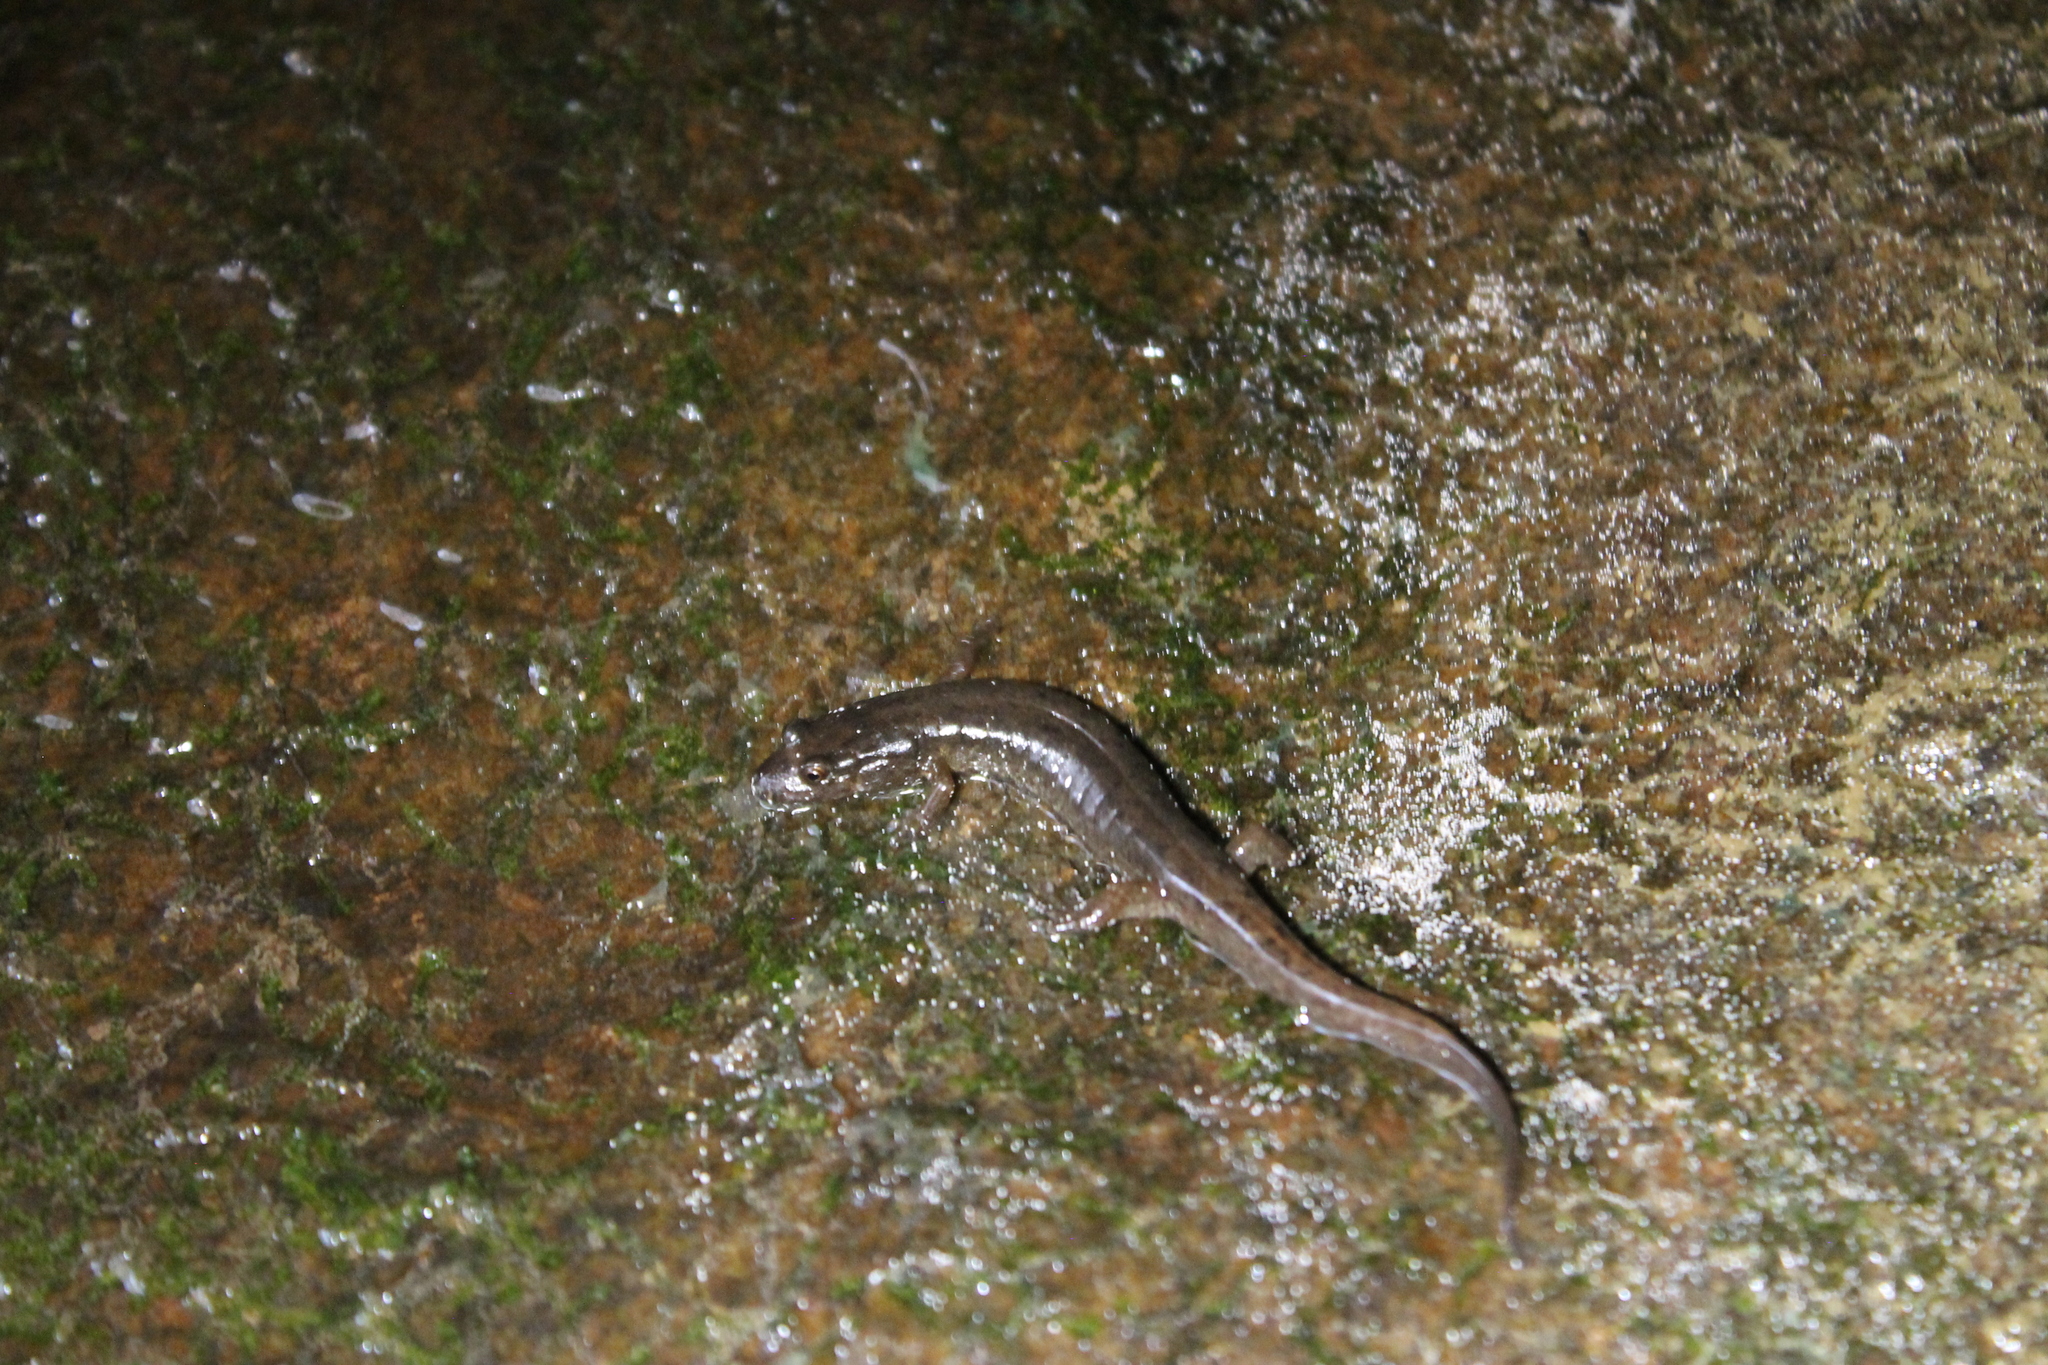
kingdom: Animalia
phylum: Chordata
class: Amphibia
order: Caudata
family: Plethodontidae
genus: Desmognathus
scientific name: Desmognathus
